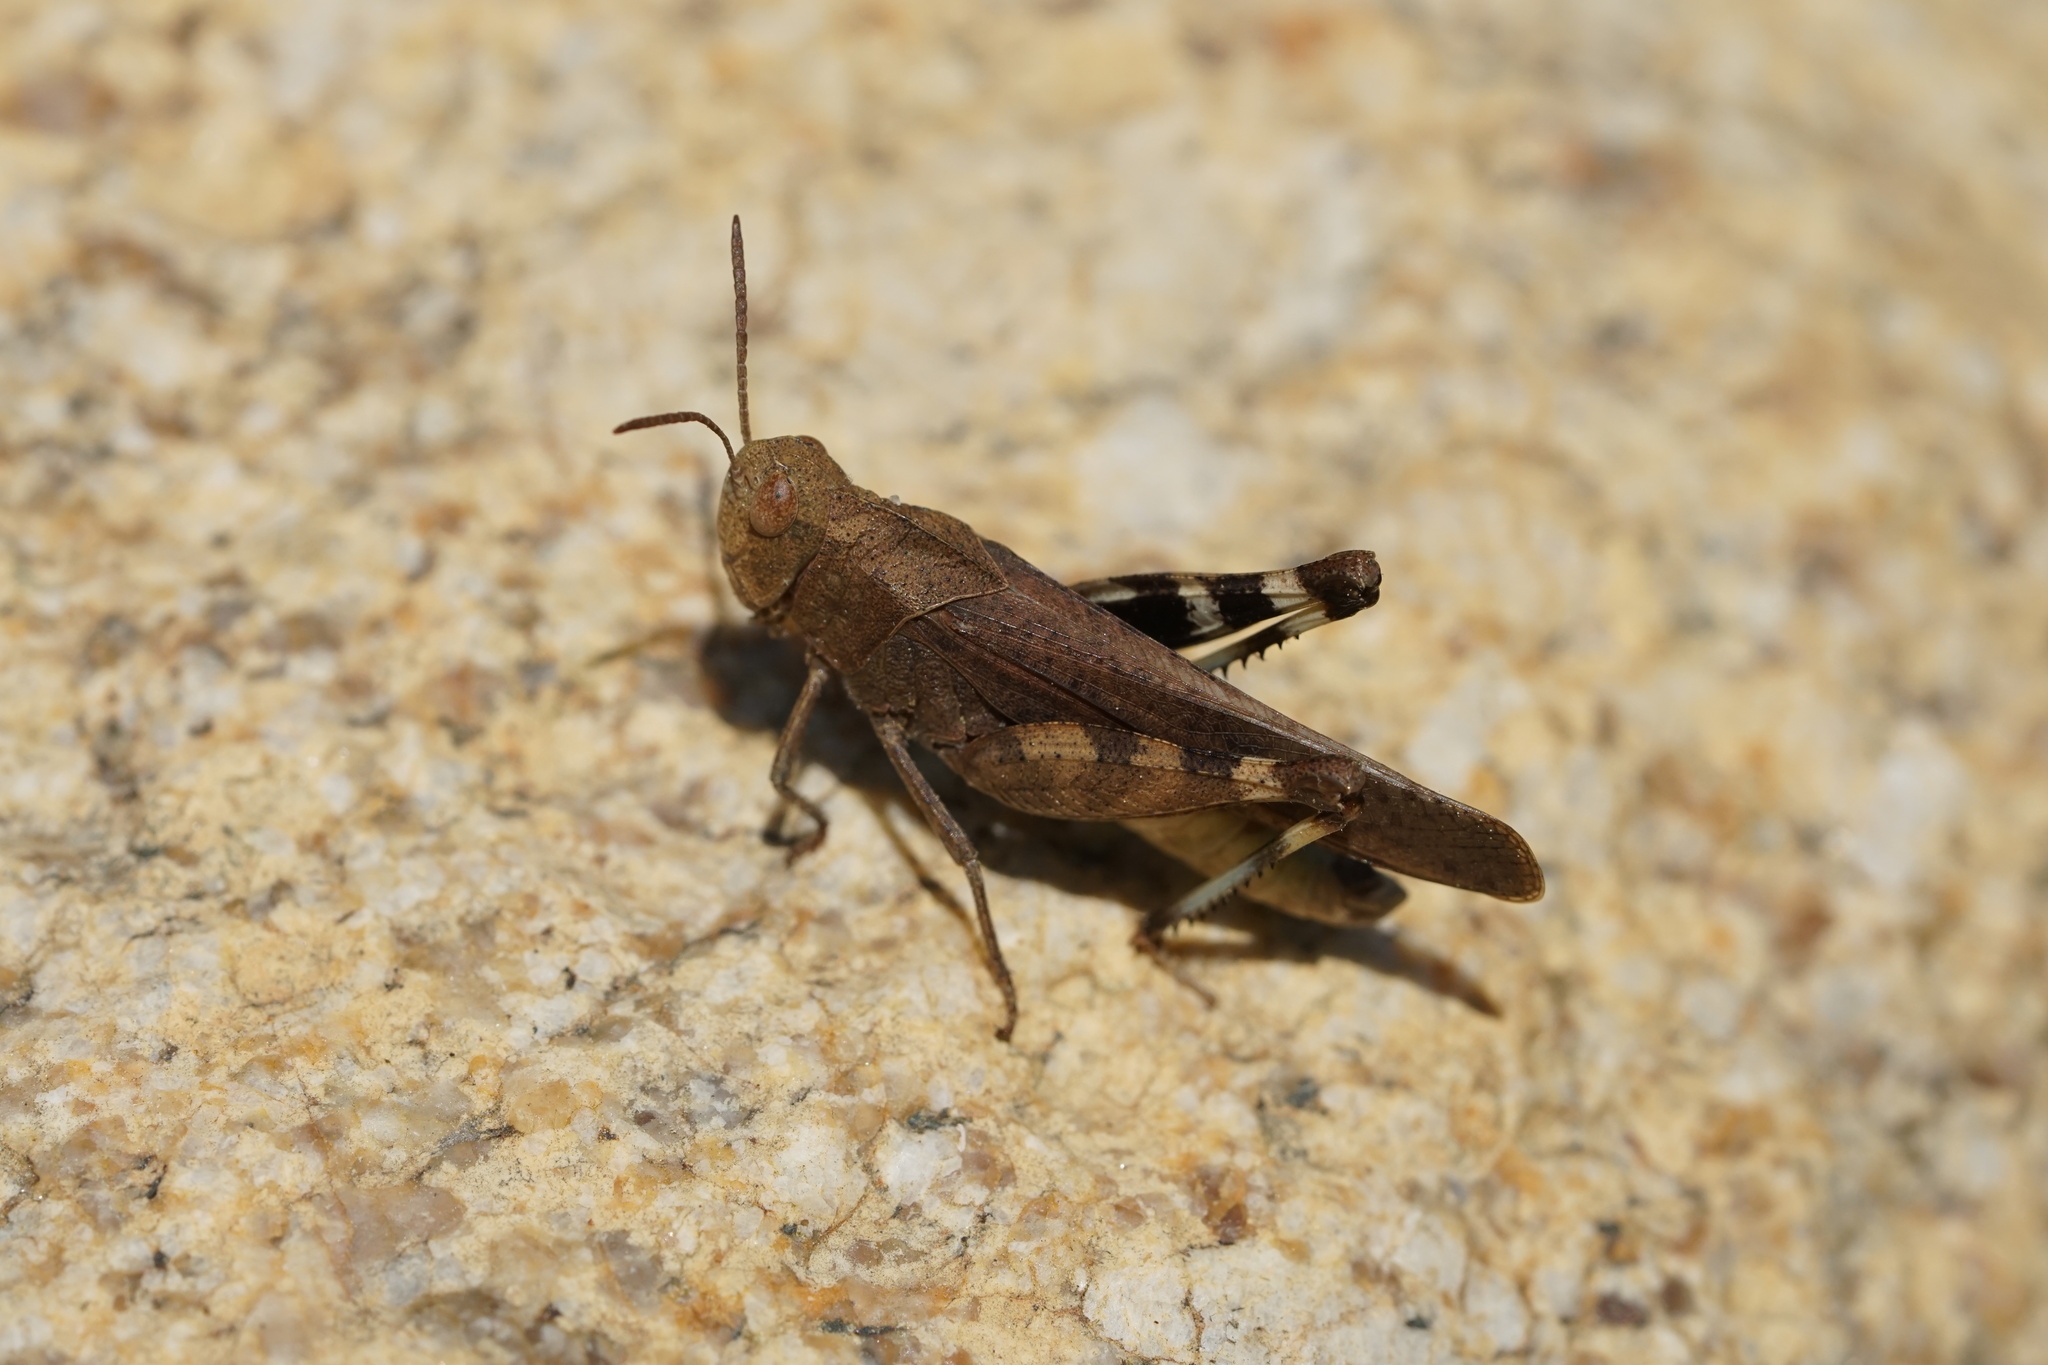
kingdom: Animalia
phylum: Arthropoda
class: Insecta
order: Orthoptera
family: Acrididae
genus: Arphia
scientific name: Arphia sulphurea
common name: Spring yellow-winged locust
